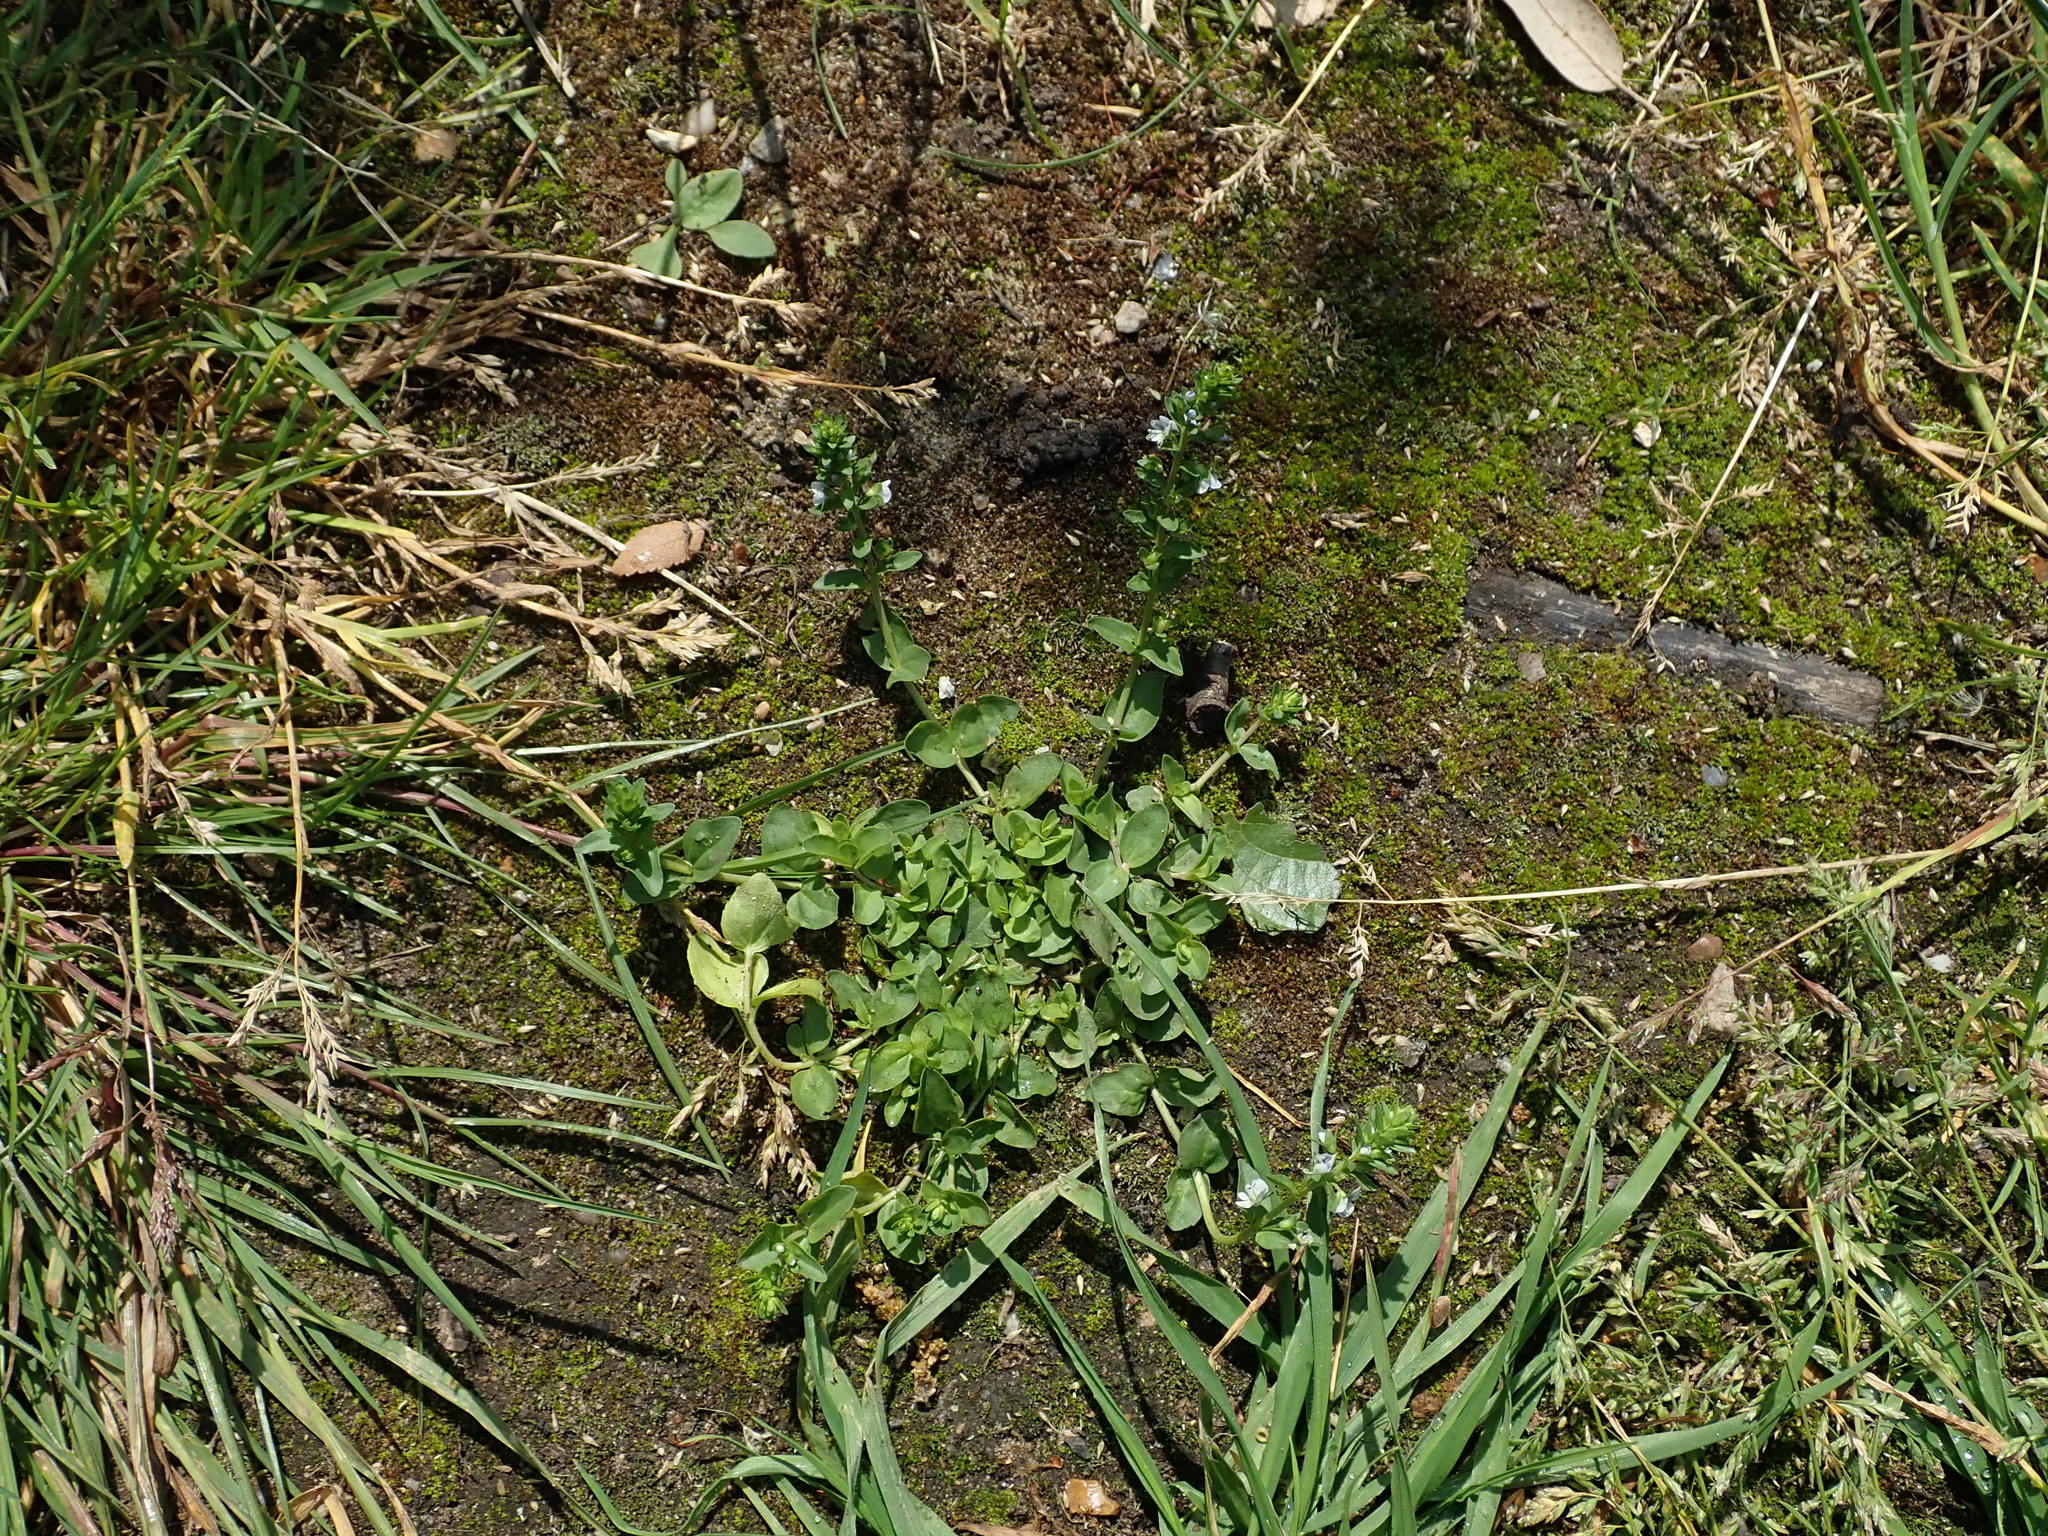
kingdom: Plantae
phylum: Tracheophyta
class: Magnoliopsida
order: Lamiales
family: Plantaginaceae
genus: Veronica
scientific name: Veronica serpyllifolia
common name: Thyme-leaved speedwell
